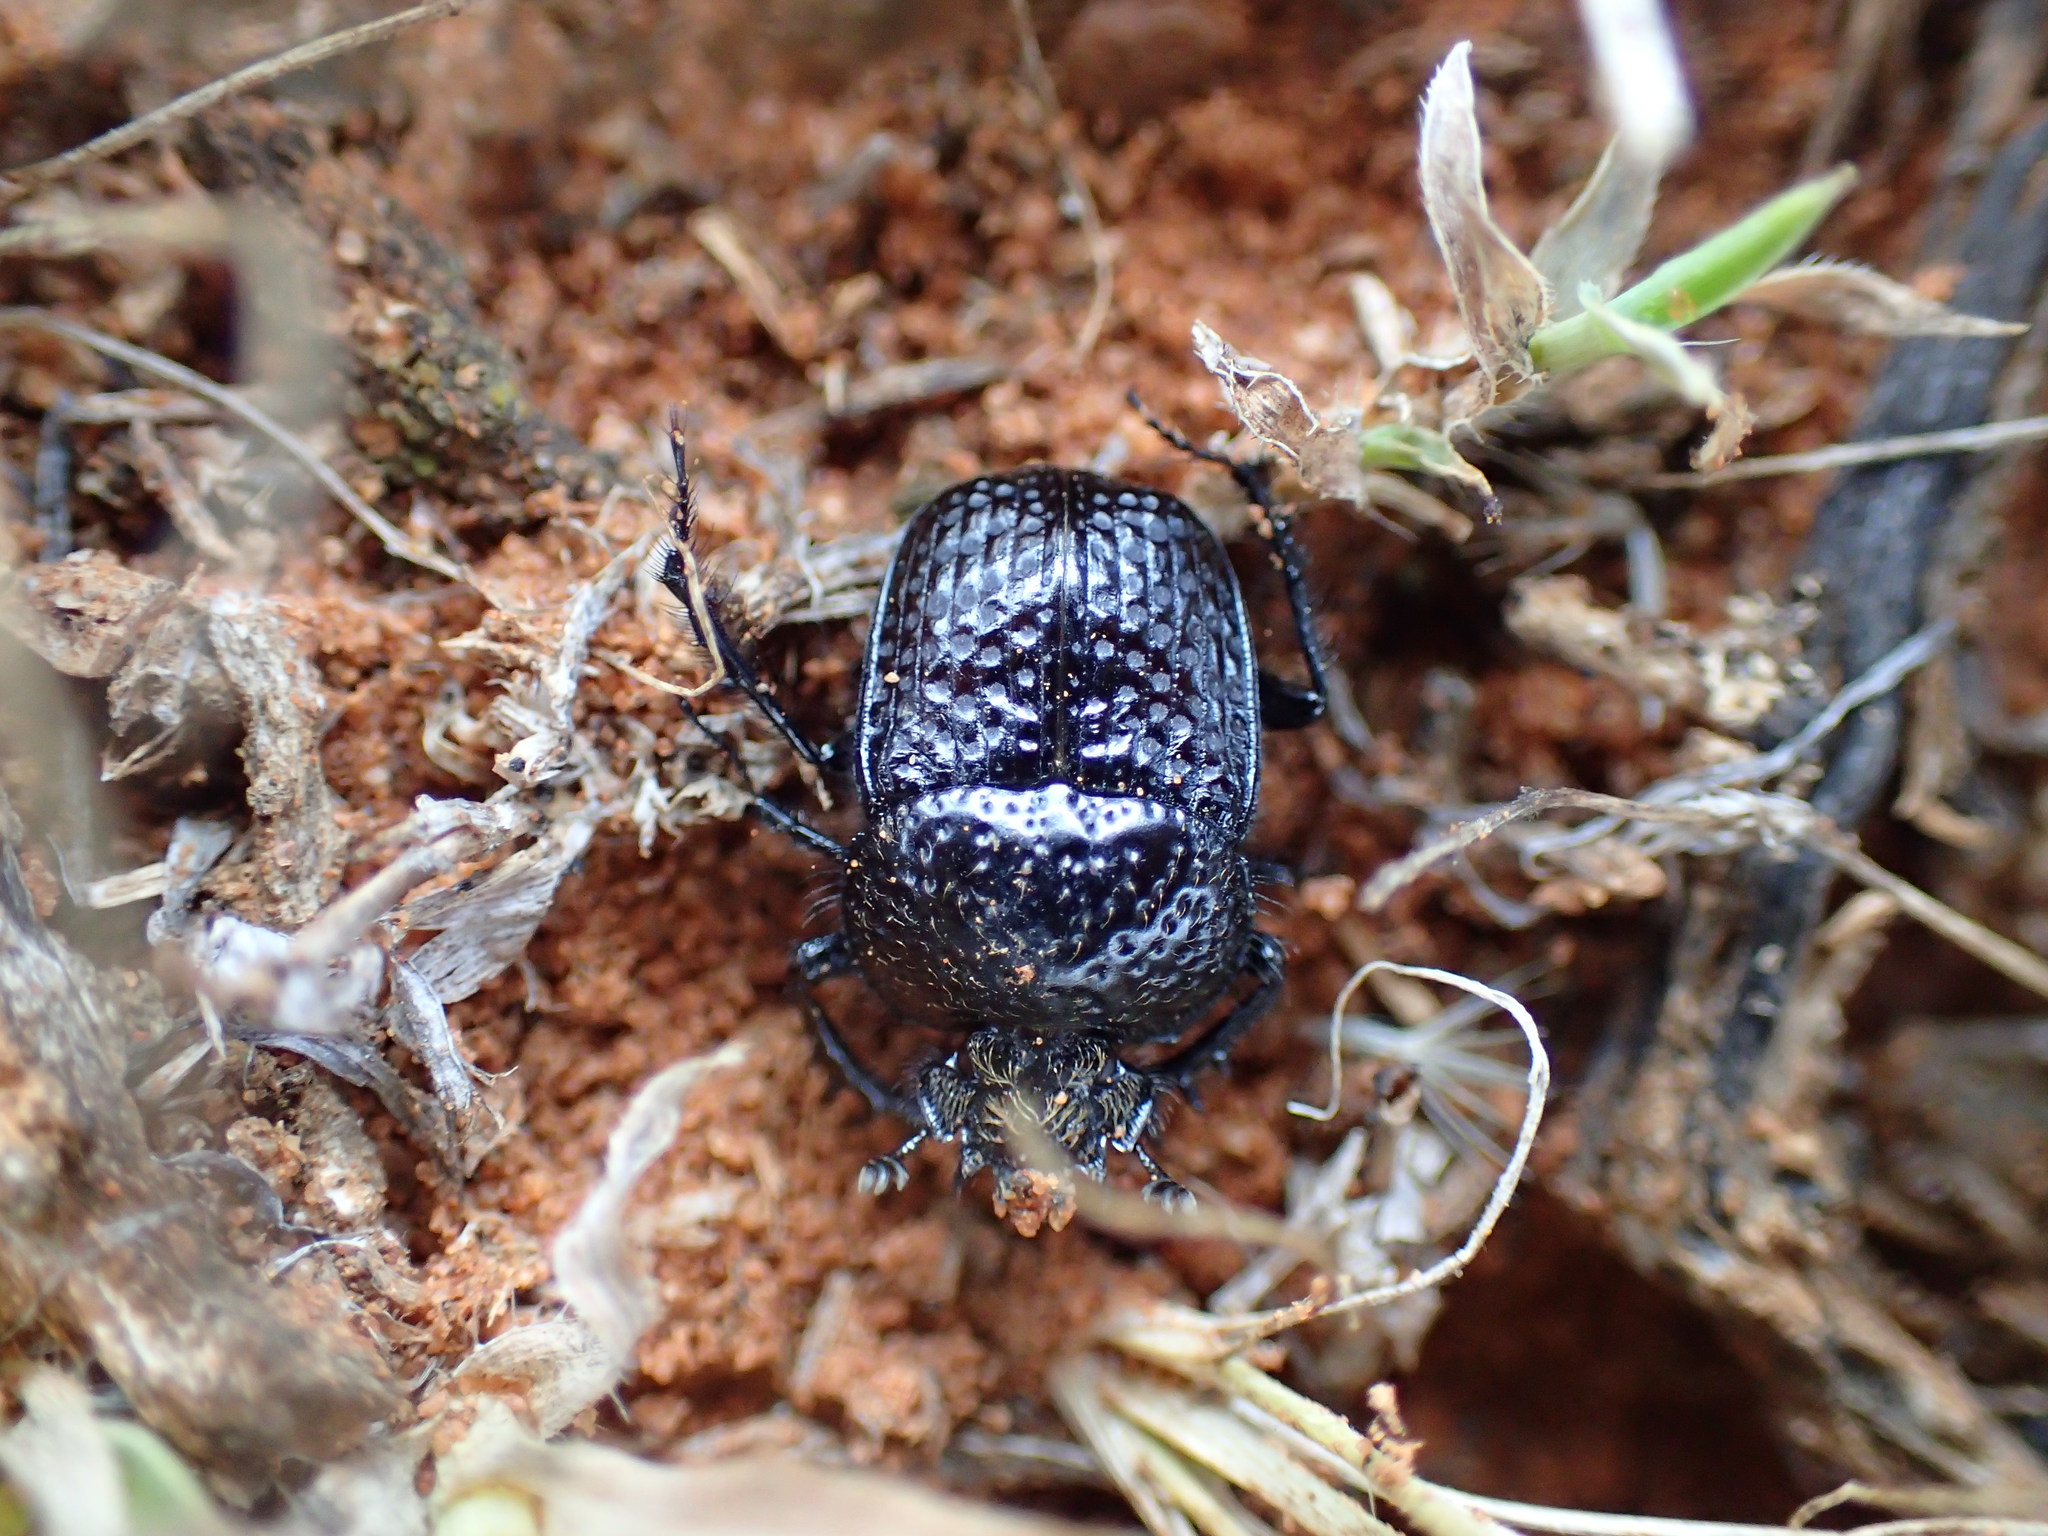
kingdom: Animalia
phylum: Arthropoda
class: Insecta
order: Coleoptera
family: Scarabaeidae
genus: Scarabaeolus
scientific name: Scarabaeolus bohemani
